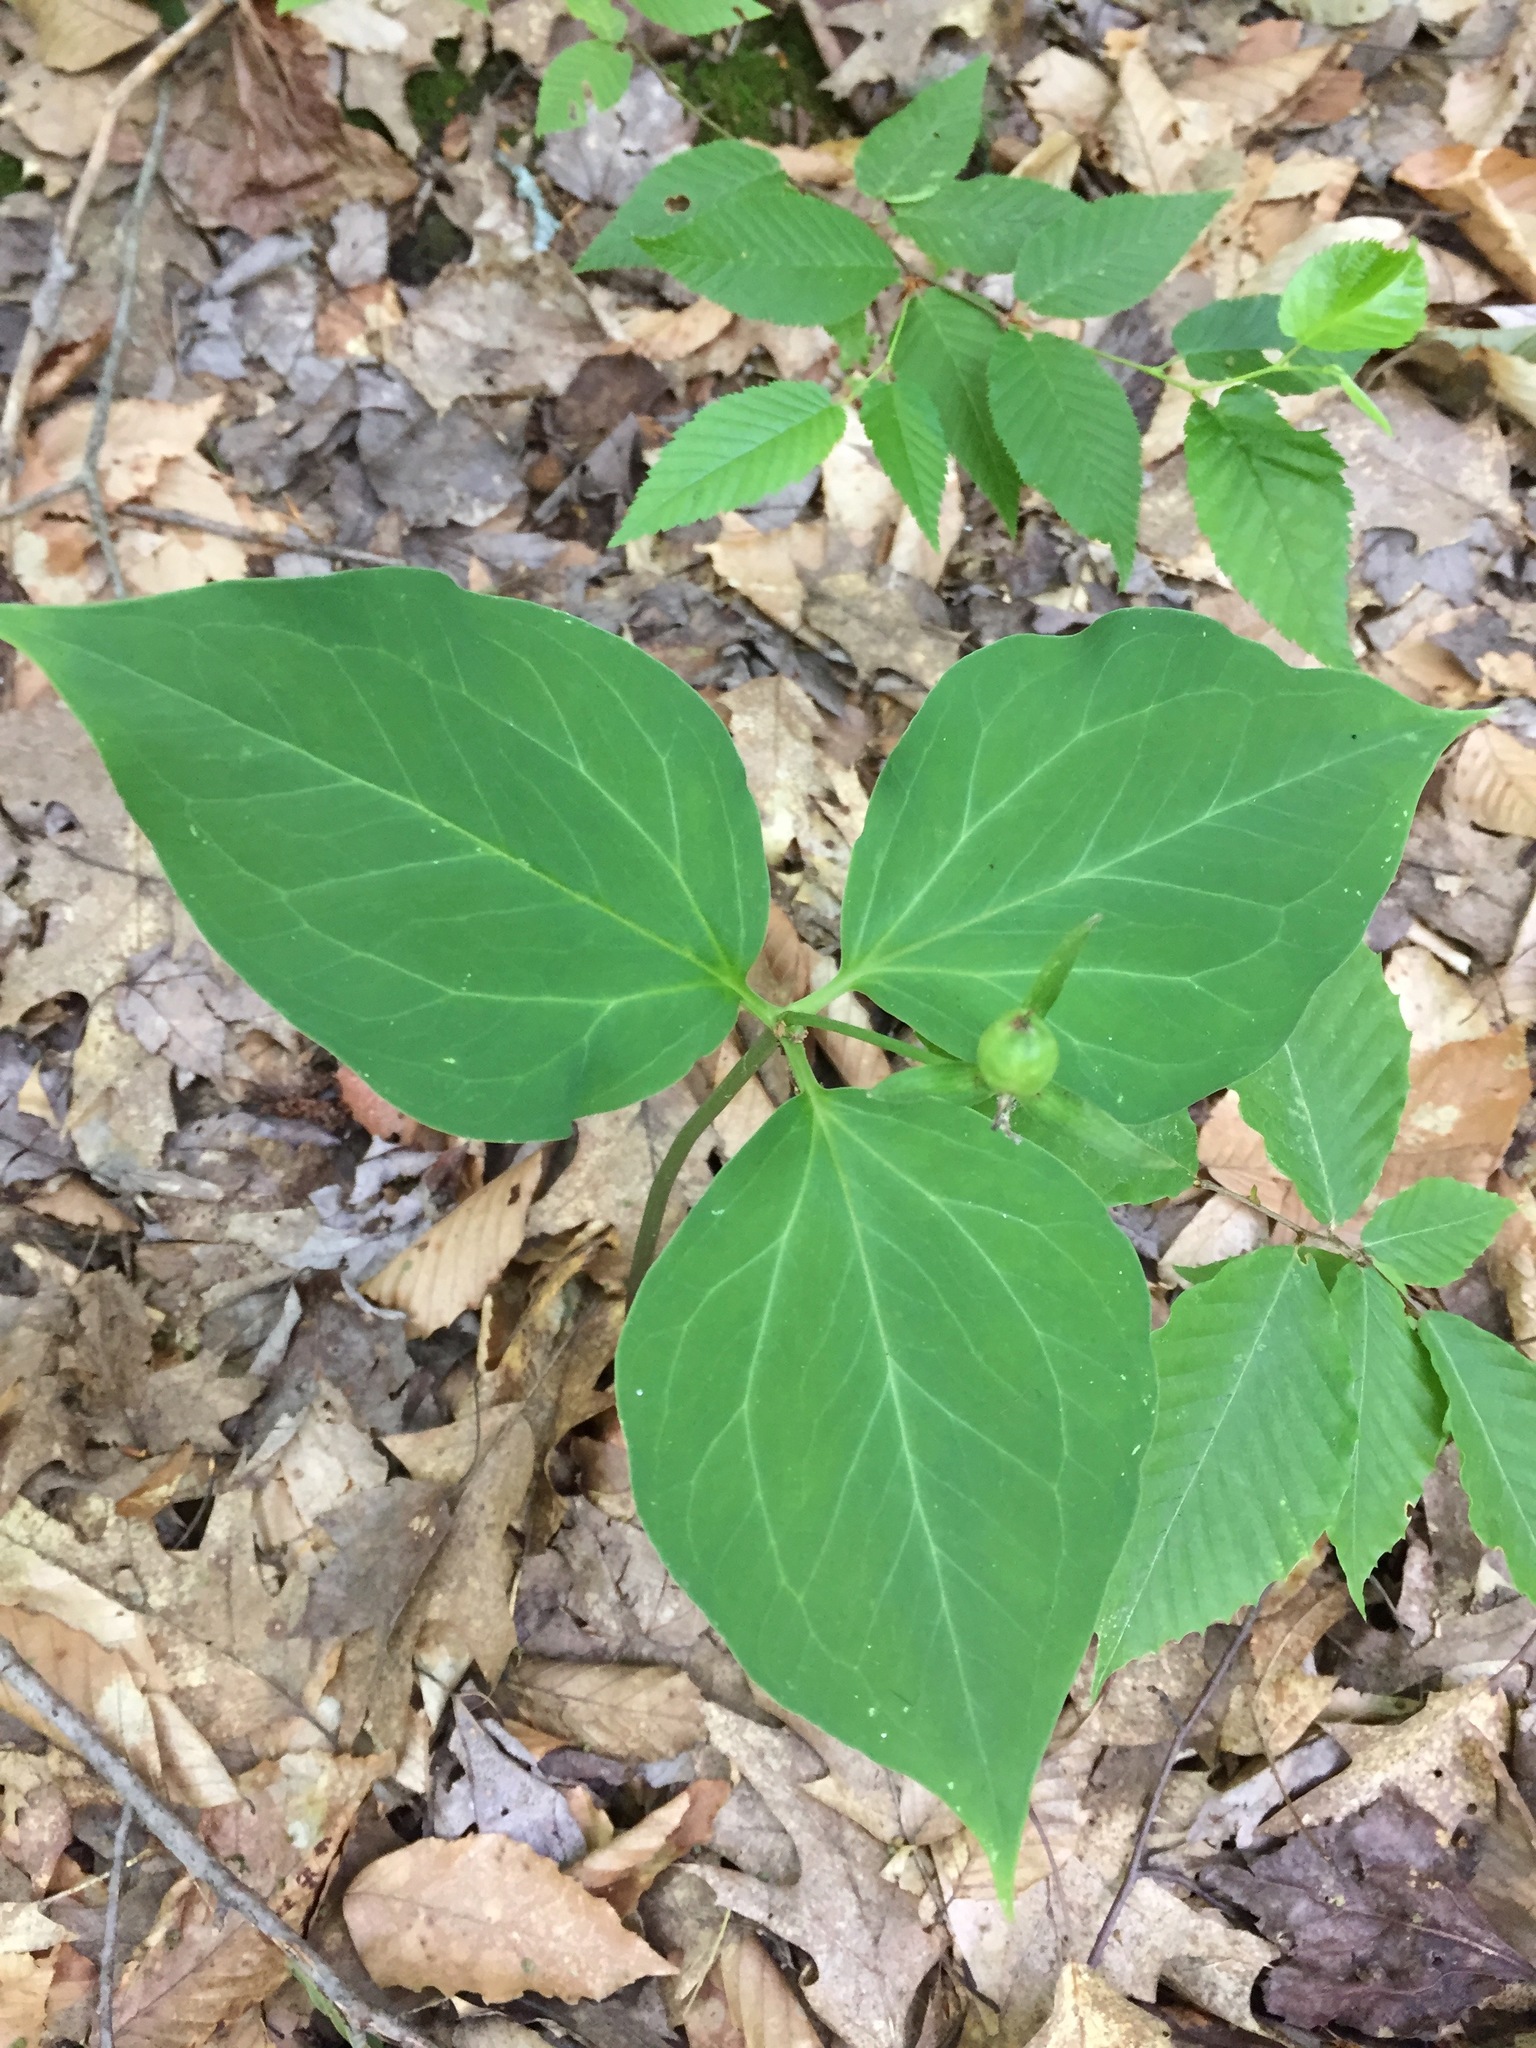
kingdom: Plantae
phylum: Tracheophyta
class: Liliopsida
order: Liliales
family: Melanthiaceae
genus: Trillium
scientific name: Trillium undulatum
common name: Paint trillium
